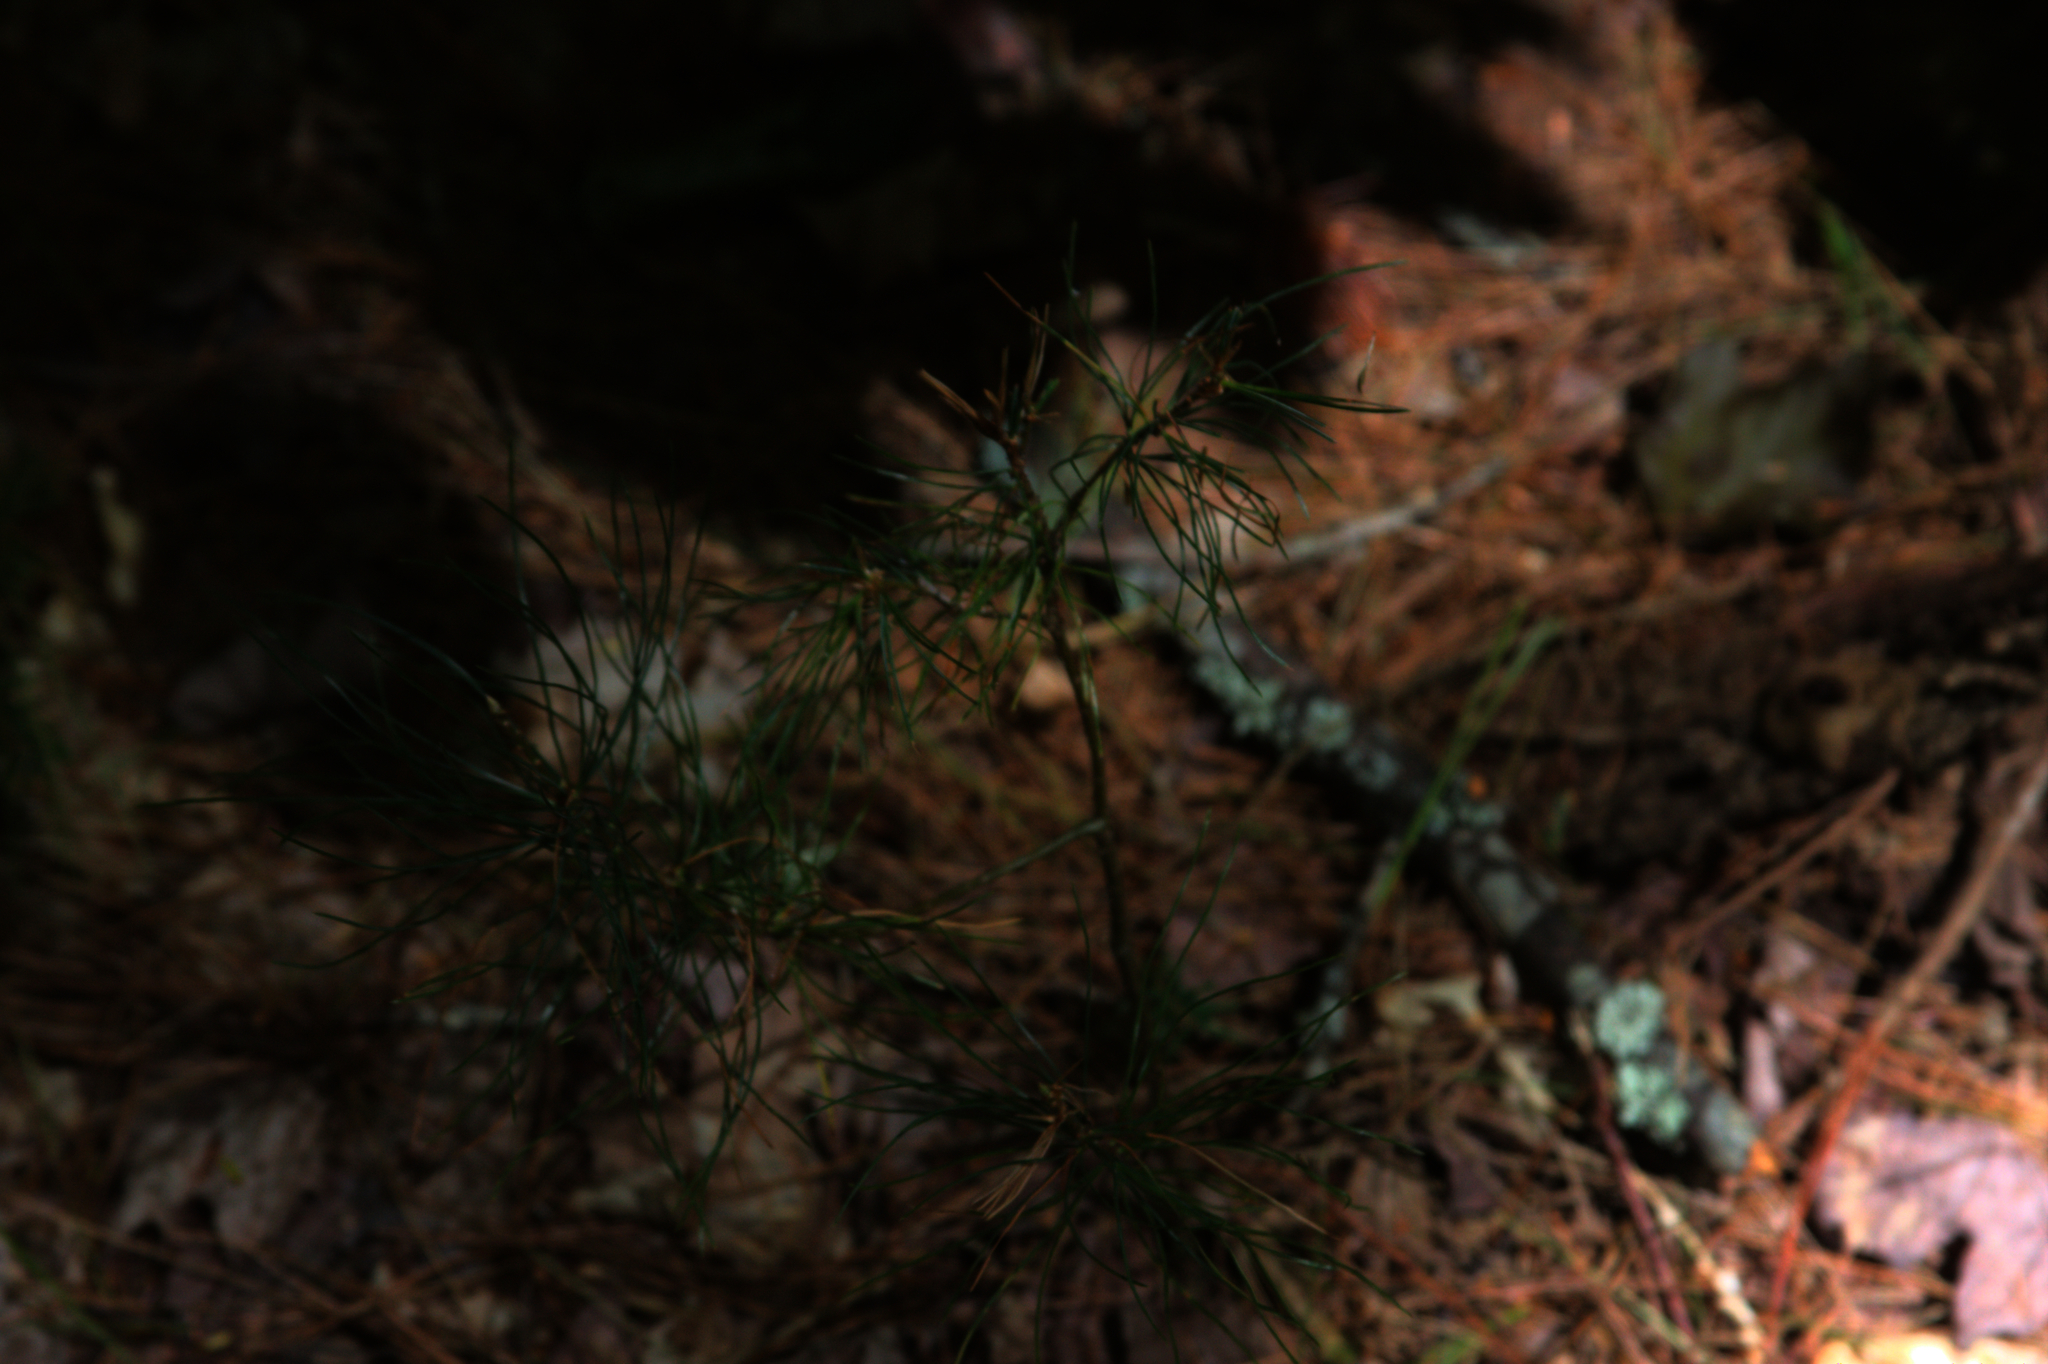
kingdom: Plantae
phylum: Tracheophyta
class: Pinopsida
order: Pinales
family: Pinaceae
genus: Pinus
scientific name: Pinus strobus
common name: Weymouth pine
